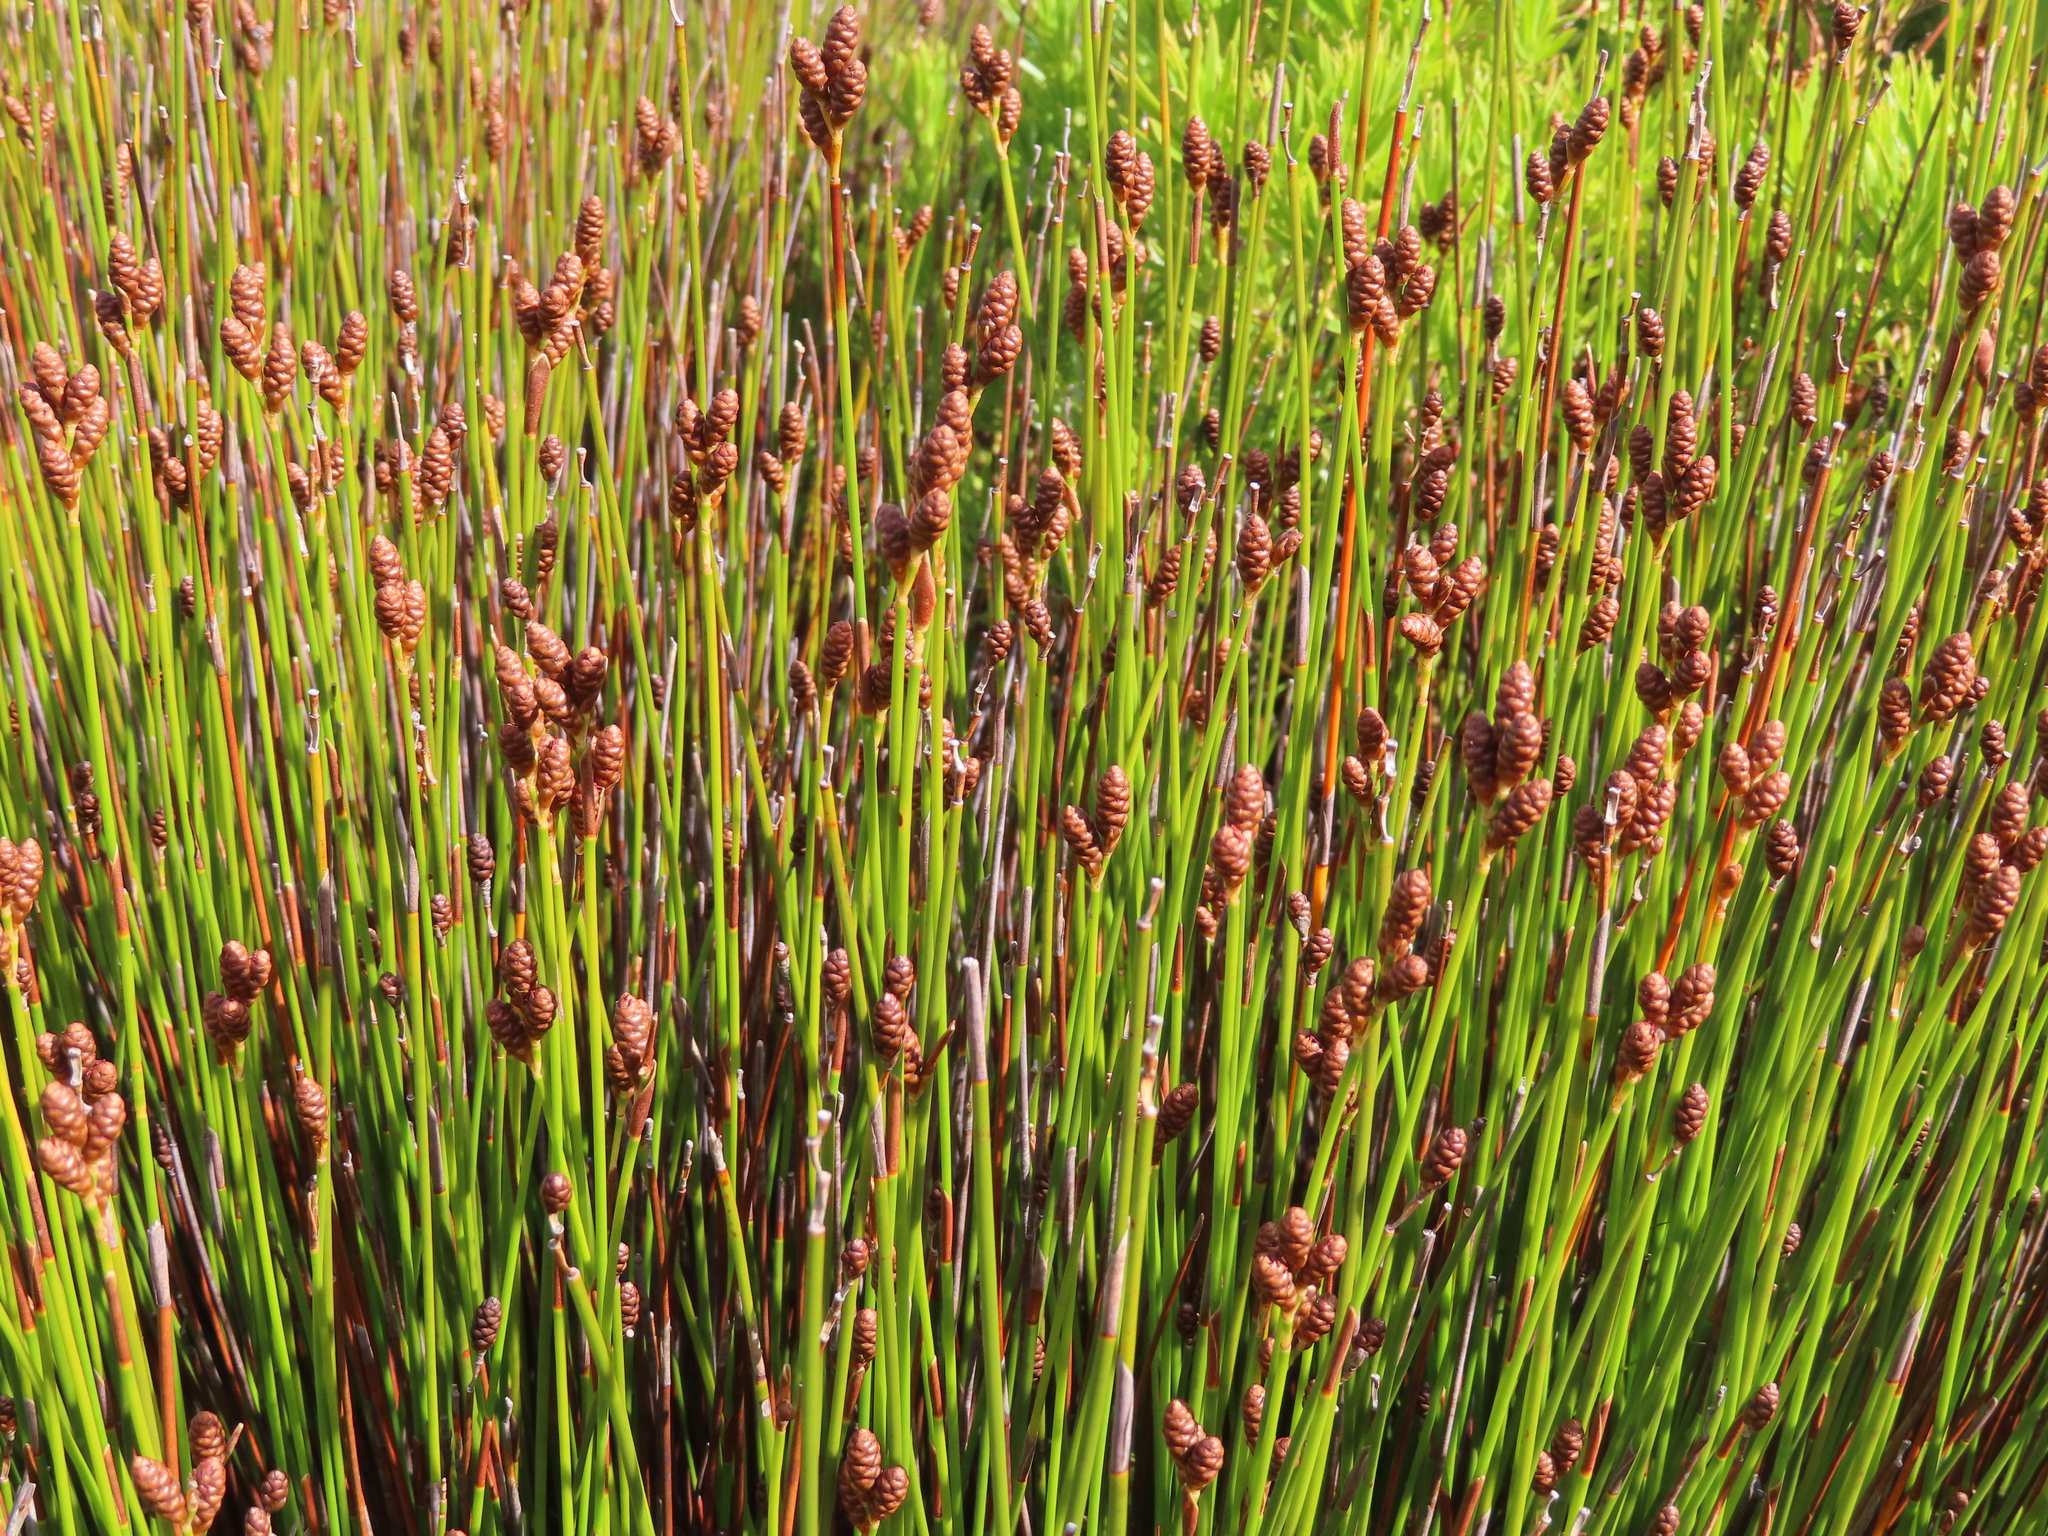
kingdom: Plantae
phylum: Tracheophyta
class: Liliopsida
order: Poales
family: Restionaceae
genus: Nevillea
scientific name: Nevillea obtusissimus
